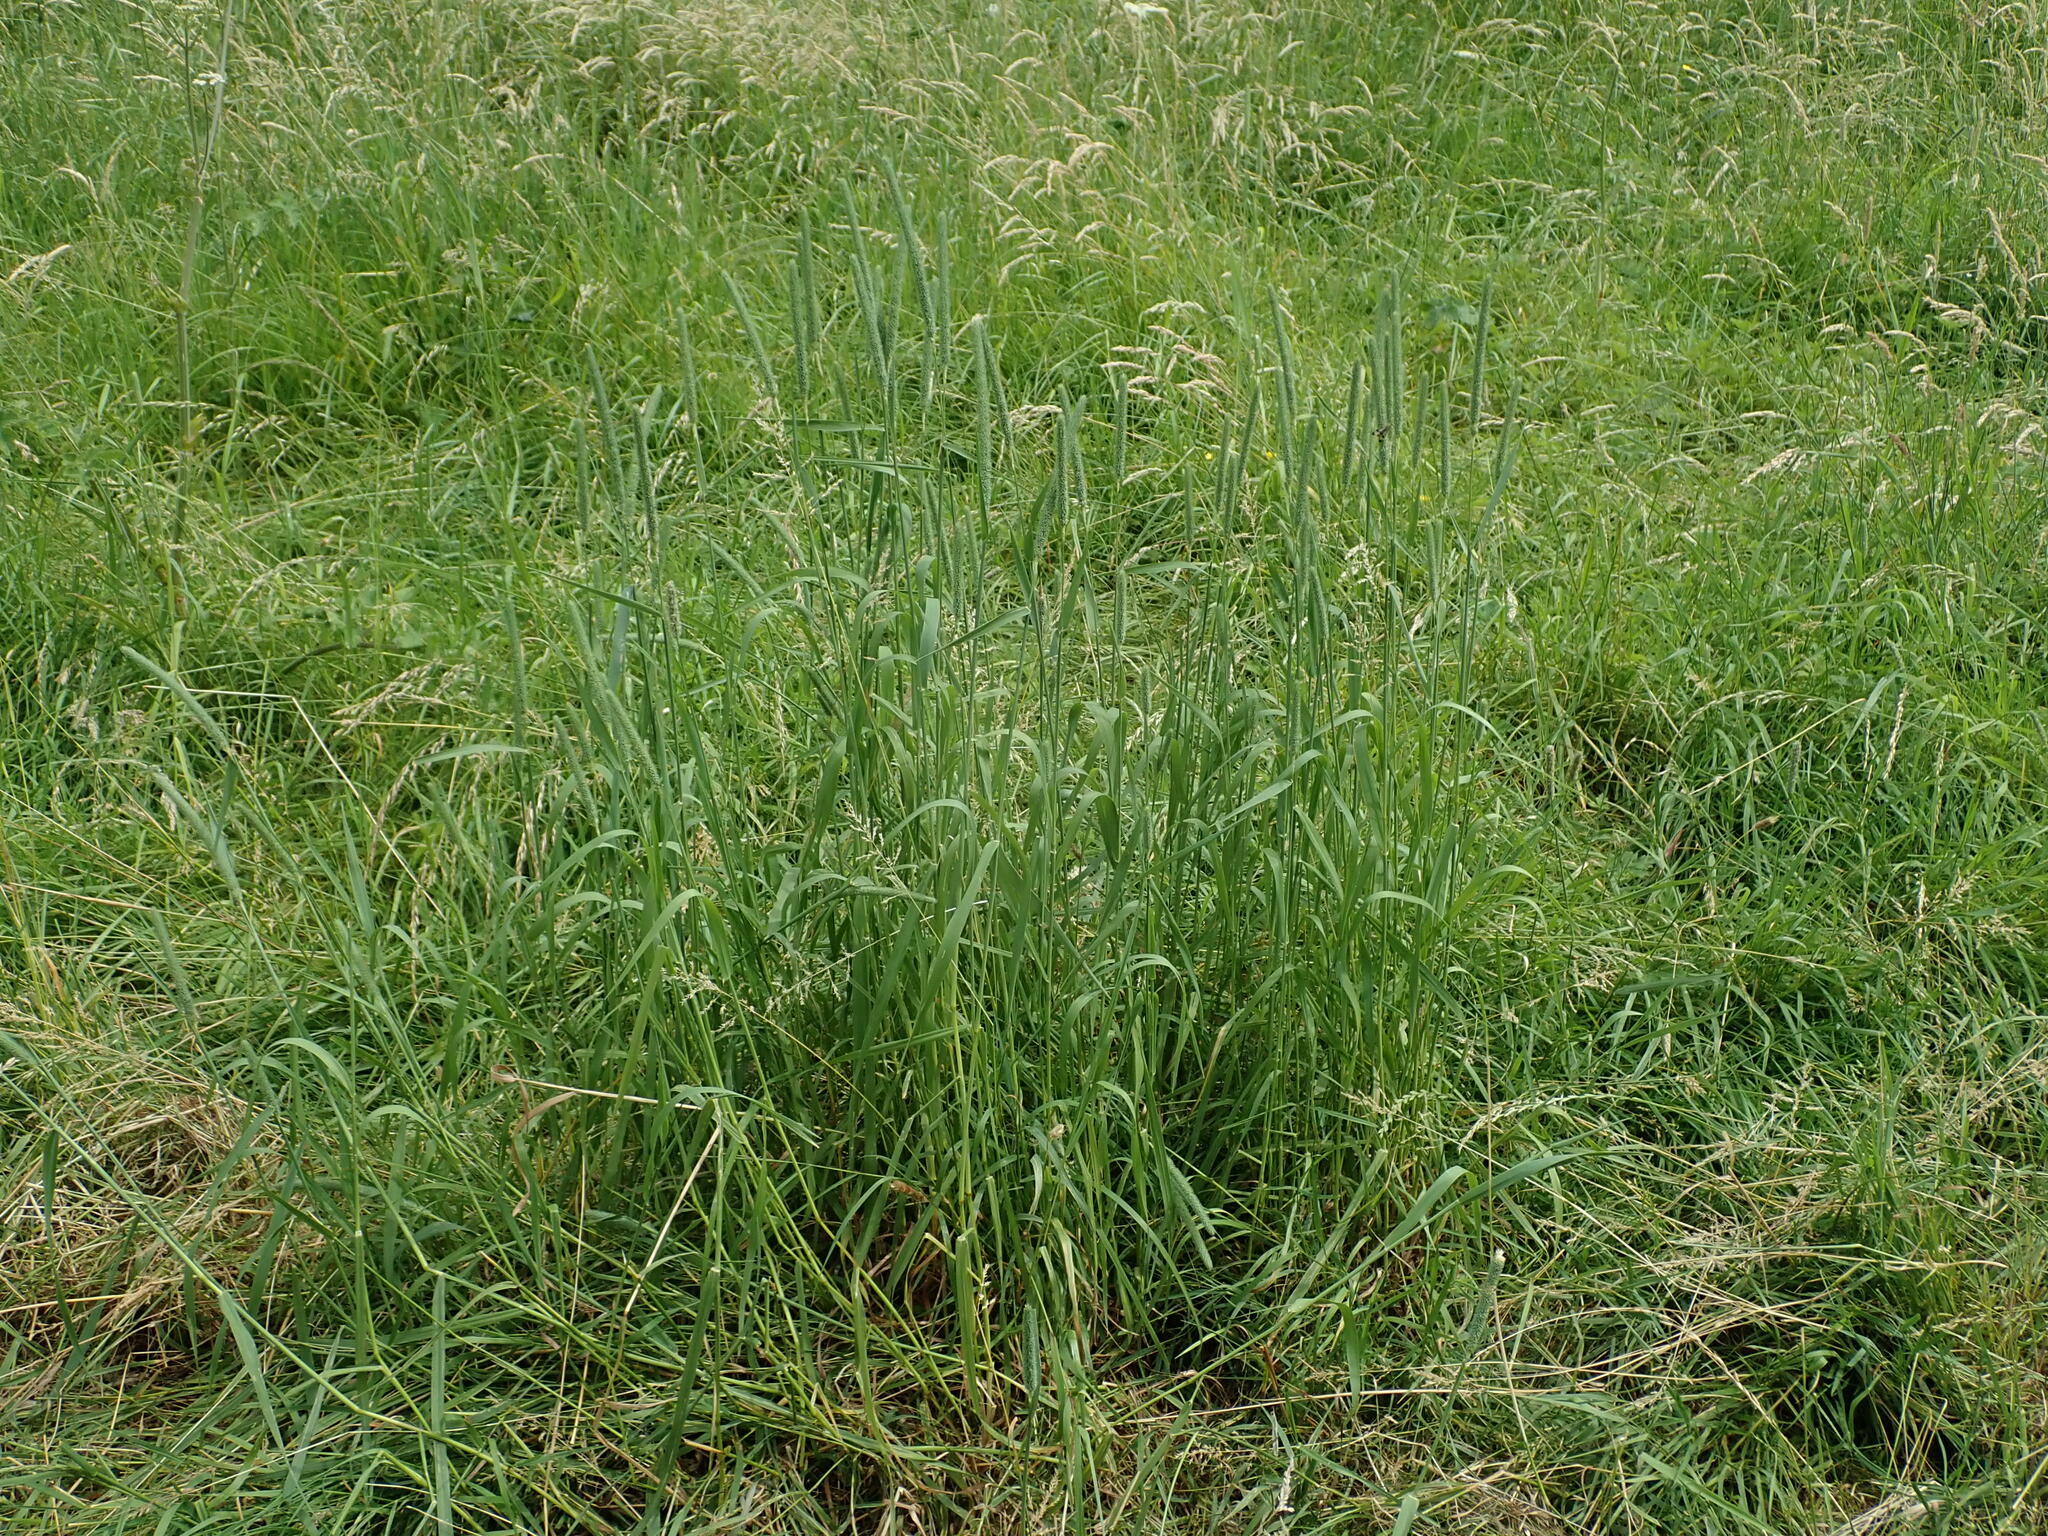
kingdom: Plantae
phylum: Tracheophyta
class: Liliopsida
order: Poales
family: Poaceae
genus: Phleum
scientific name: Phleum pratense
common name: Timothy grass
